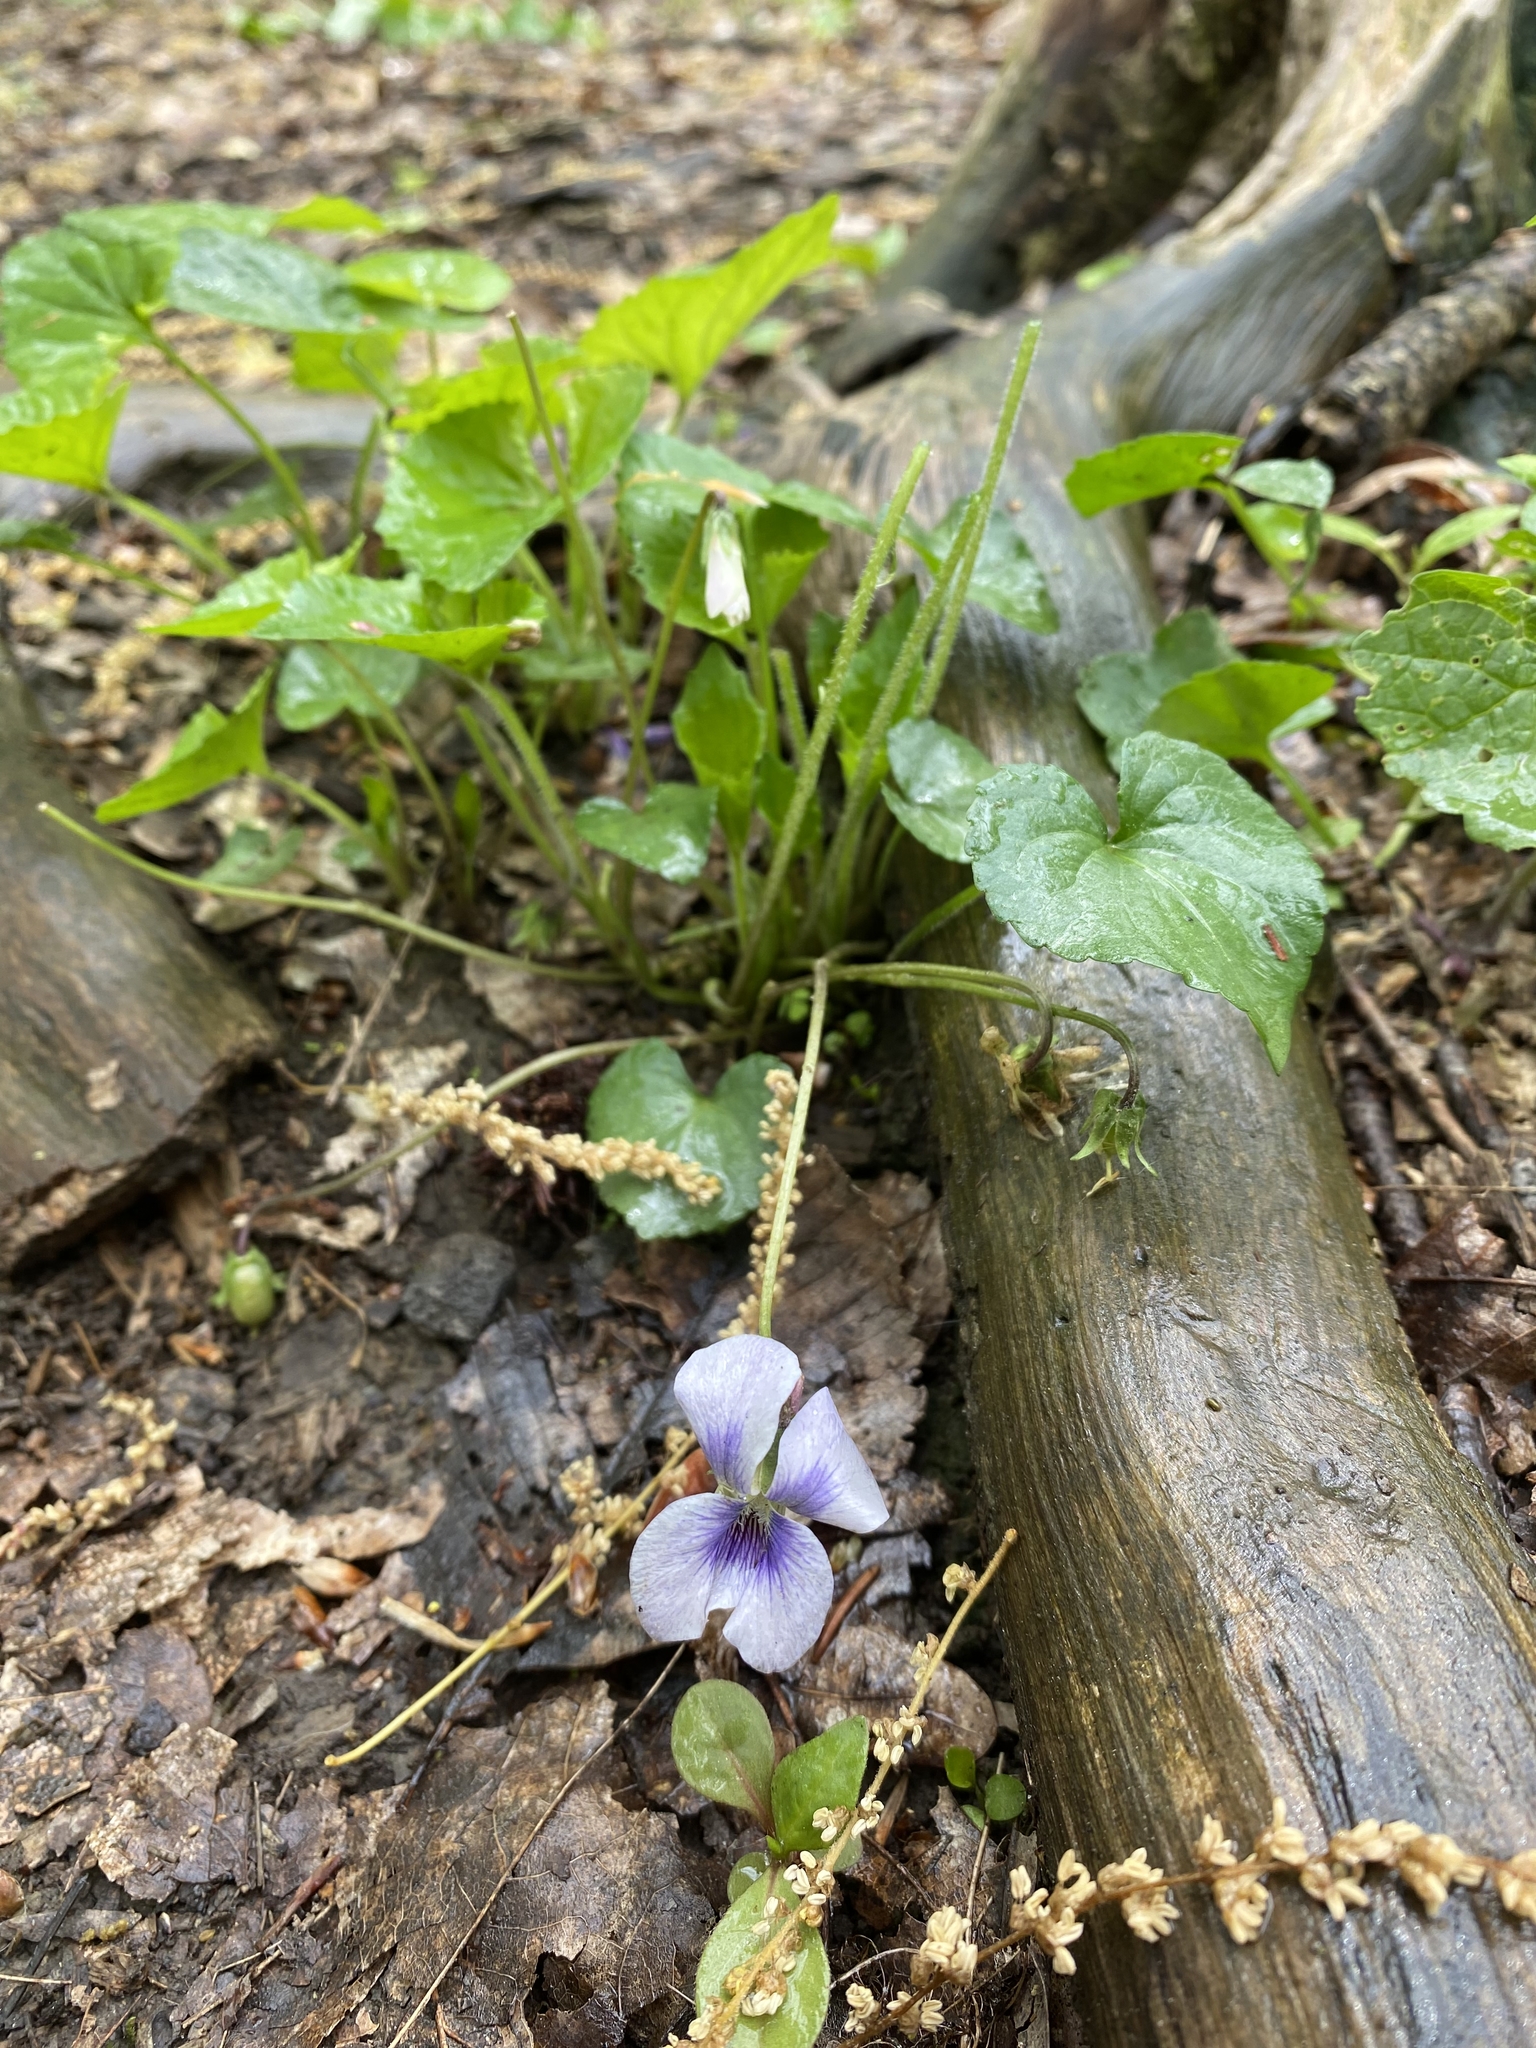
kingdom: Plantae
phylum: Tracheophyta
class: Magnoliopsida
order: Malpighiales
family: Violaceae
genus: Viola
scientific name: Viola sororia
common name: Dooryard violet
